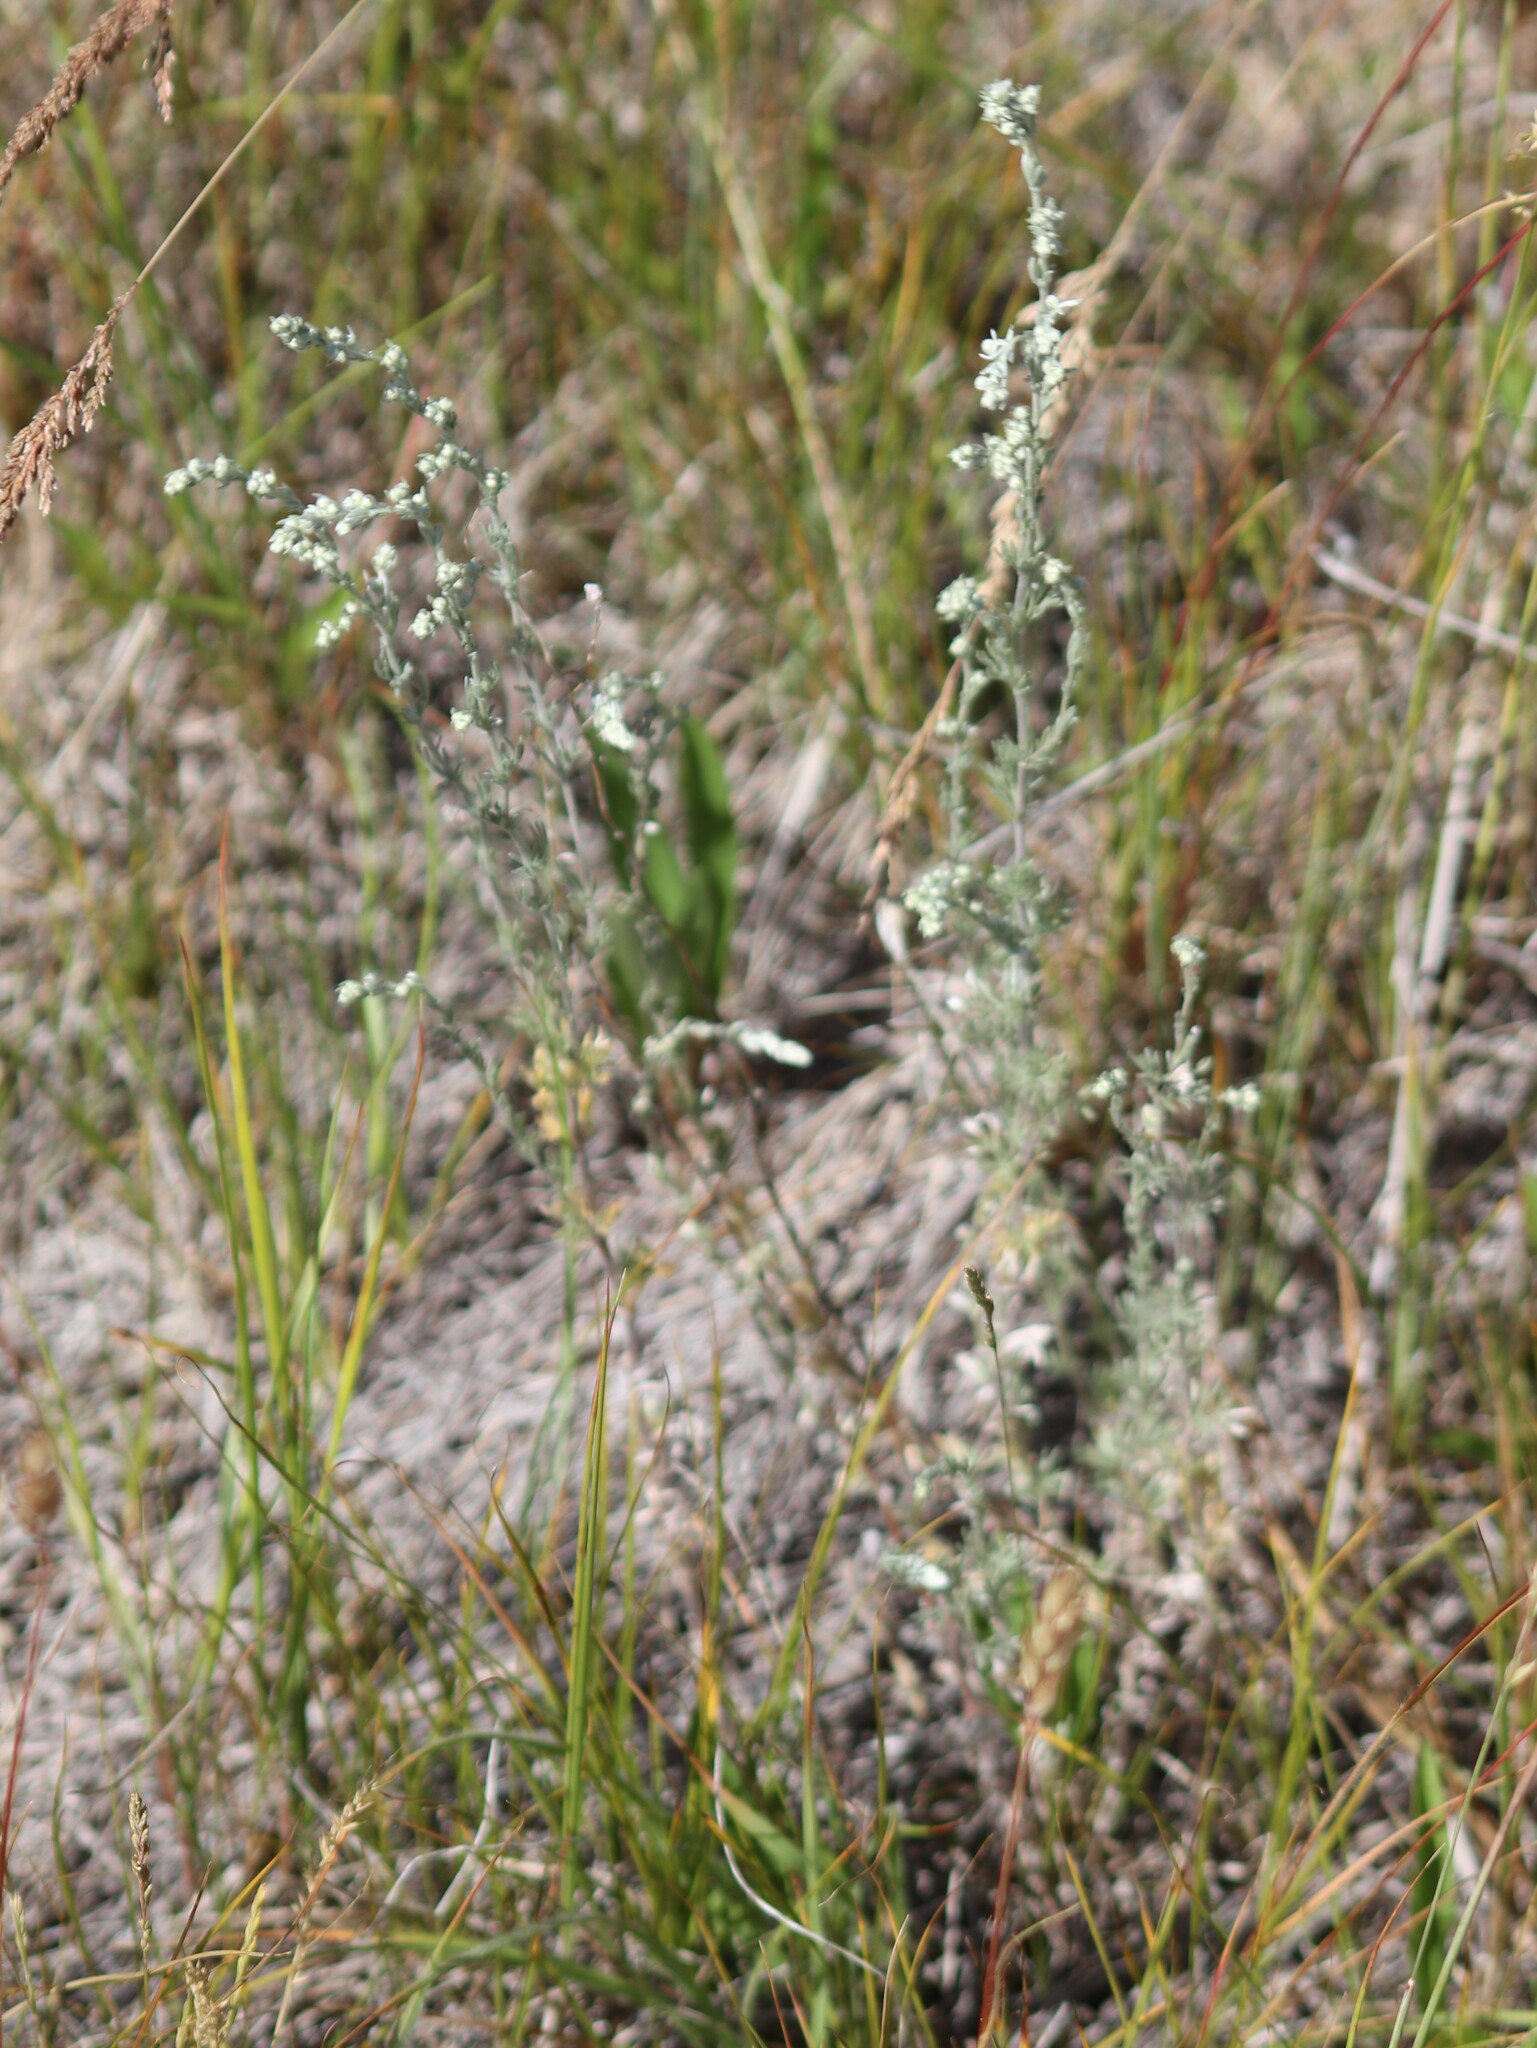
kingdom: Plantae
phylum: Tracheophyta
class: Magnoliopsida
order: Asterales
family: Asteraceae
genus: Artemisia
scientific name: Artemisia frigida
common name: Prairie sagewort
